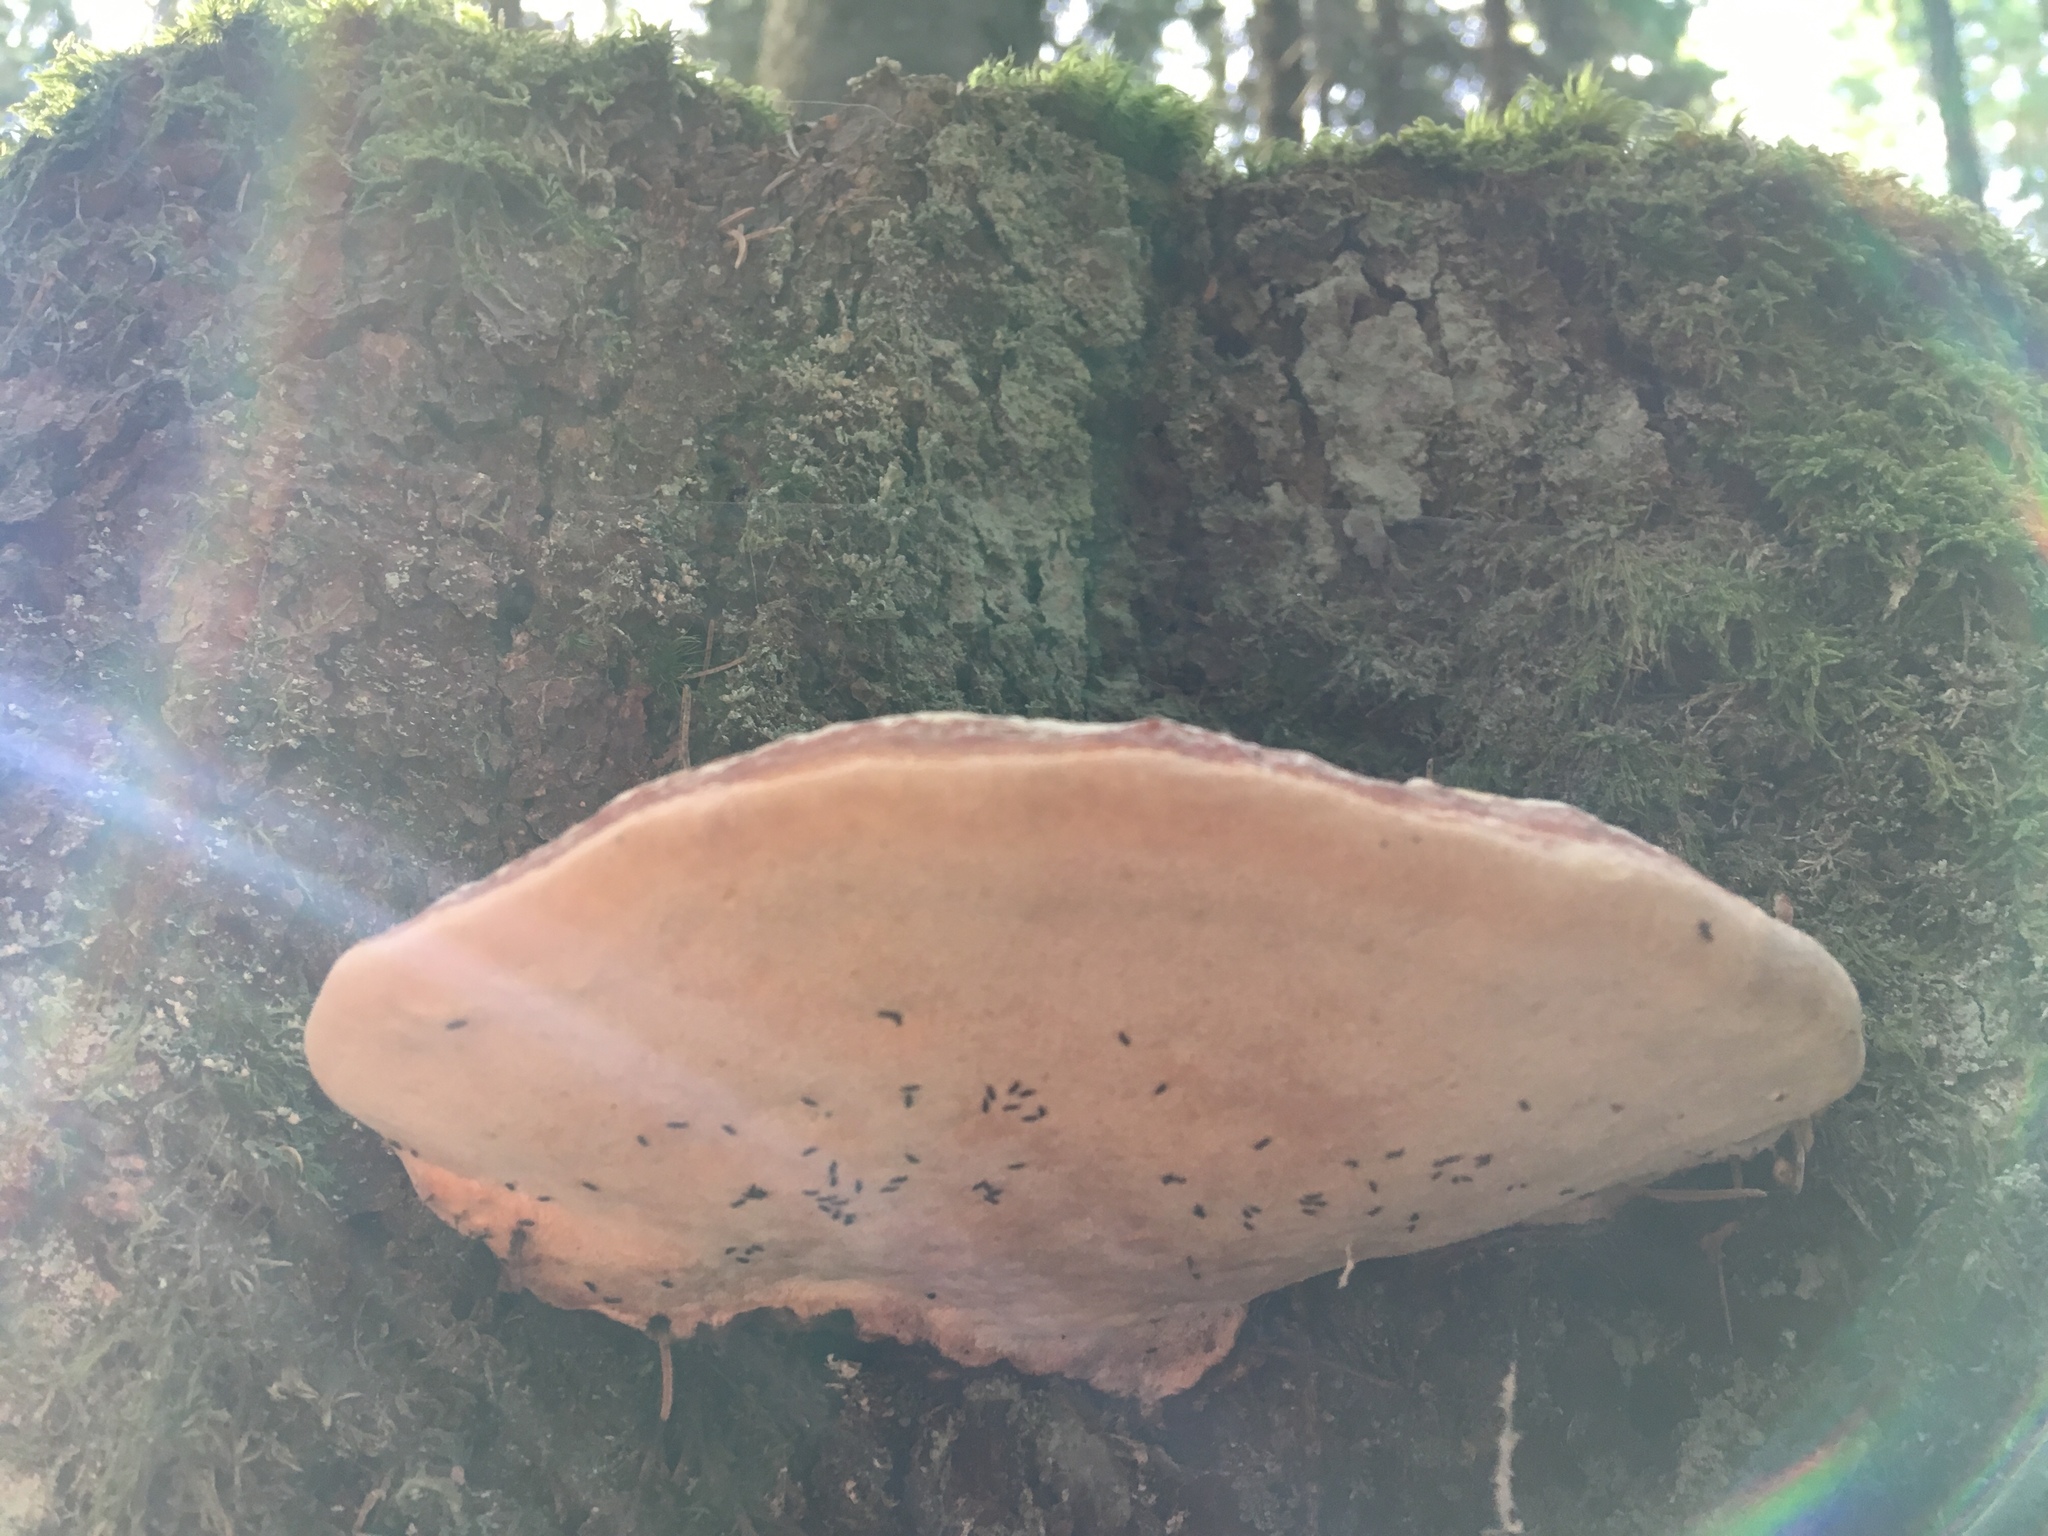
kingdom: Fungi
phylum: Basidiomycota
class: Agaricomycetes
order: Polyporales
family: Fomitopsidaceae
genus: Fomitopsis
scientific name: Fomitopsis pinicola
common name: Red-belted bracket
